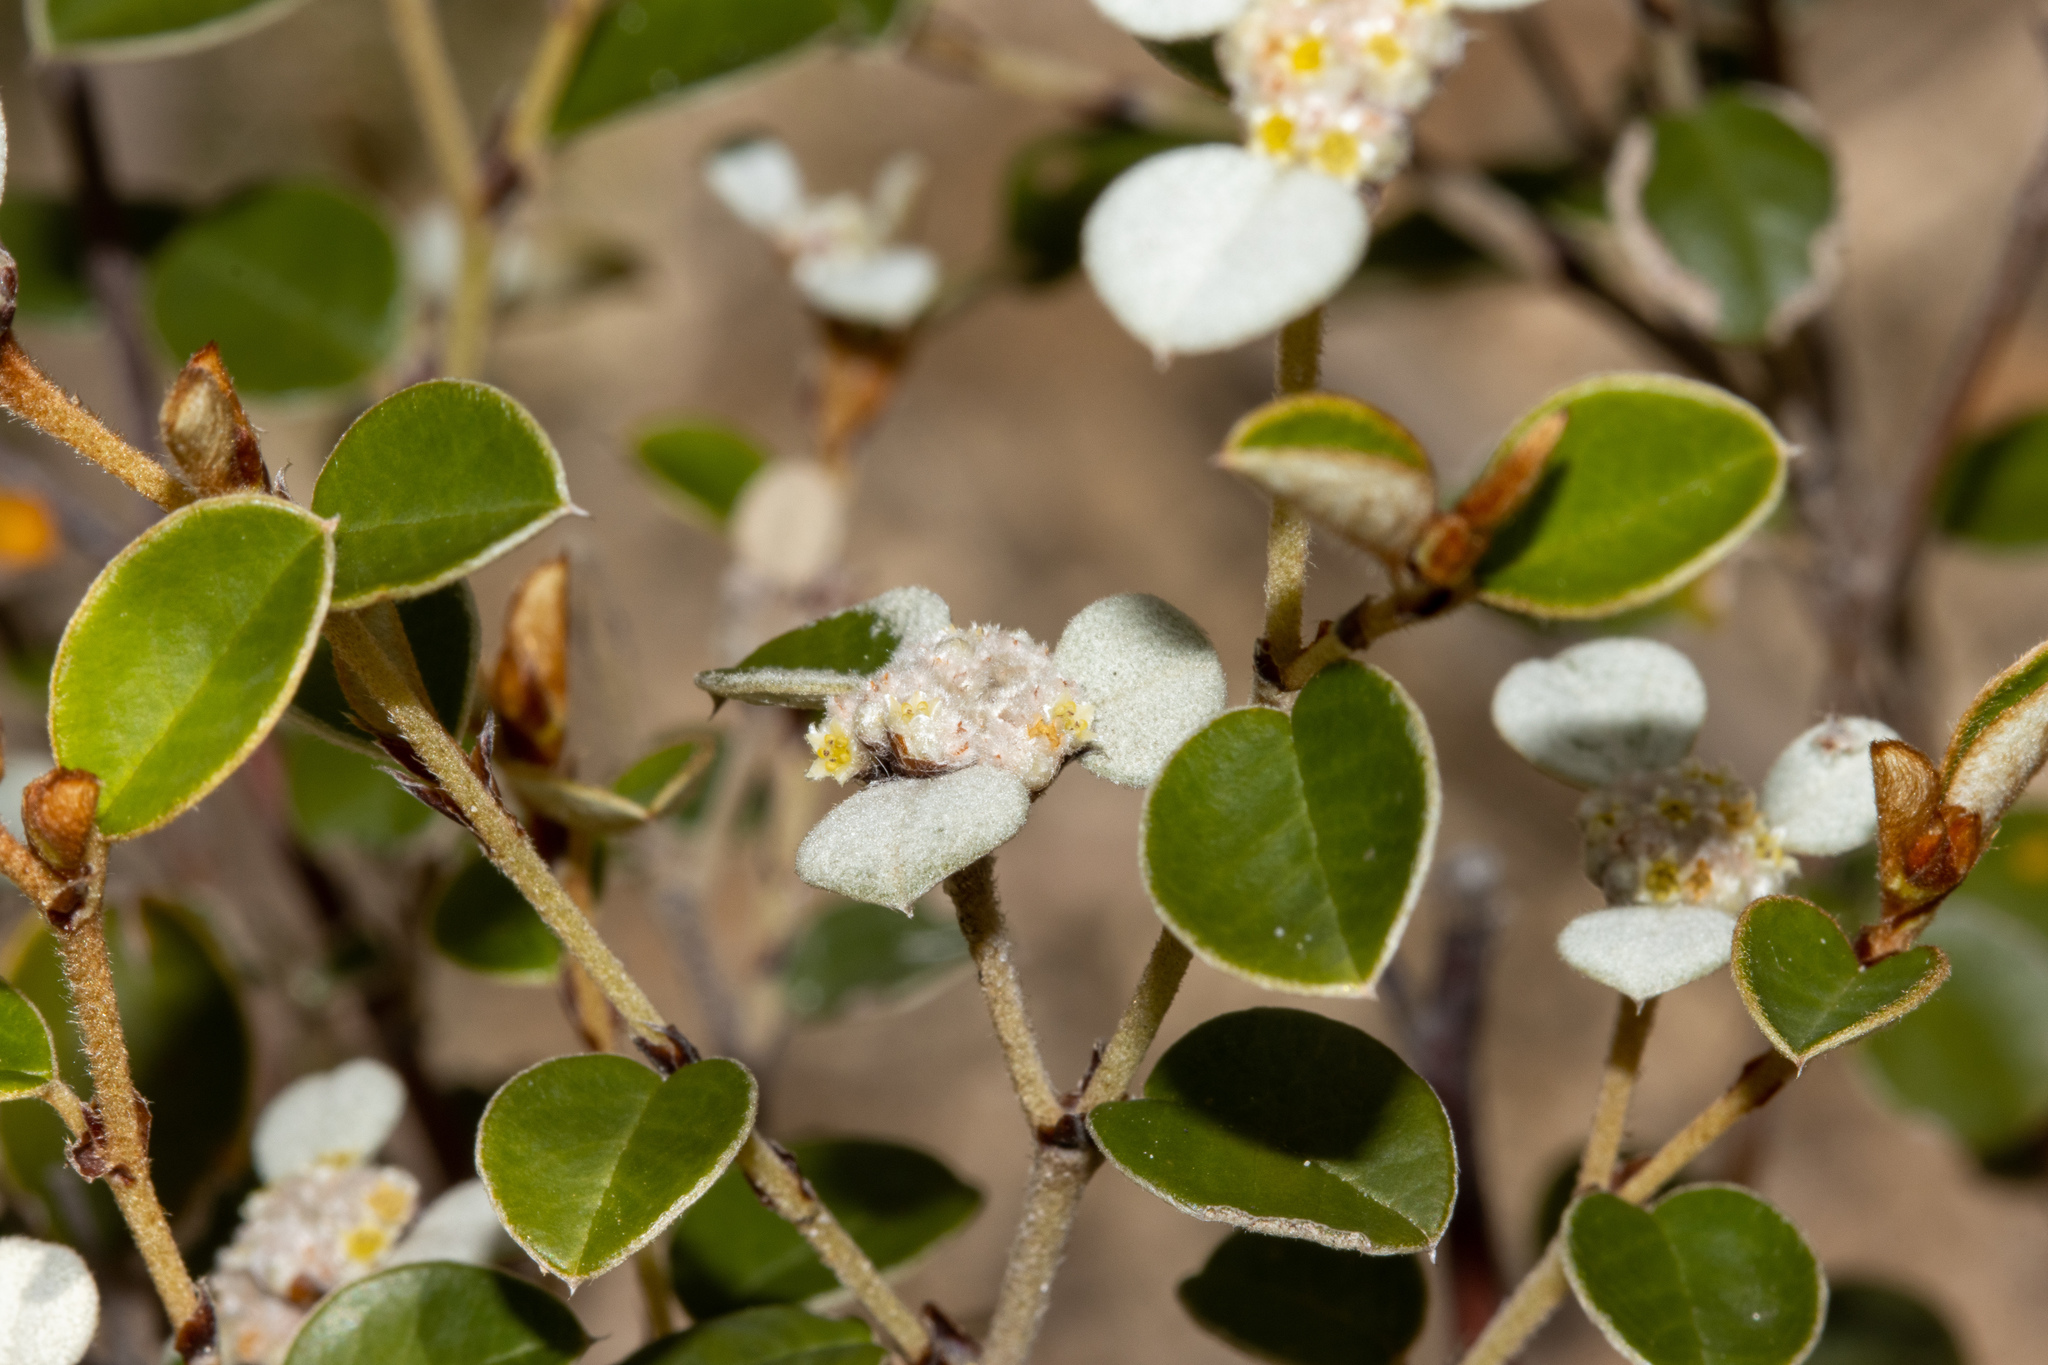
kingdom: Plantae
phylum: Tracheophyta
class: Magnoliopsida
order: Rosales
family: Rhamnaceae
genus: Spyridium
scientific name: Spyridium thymifolium
